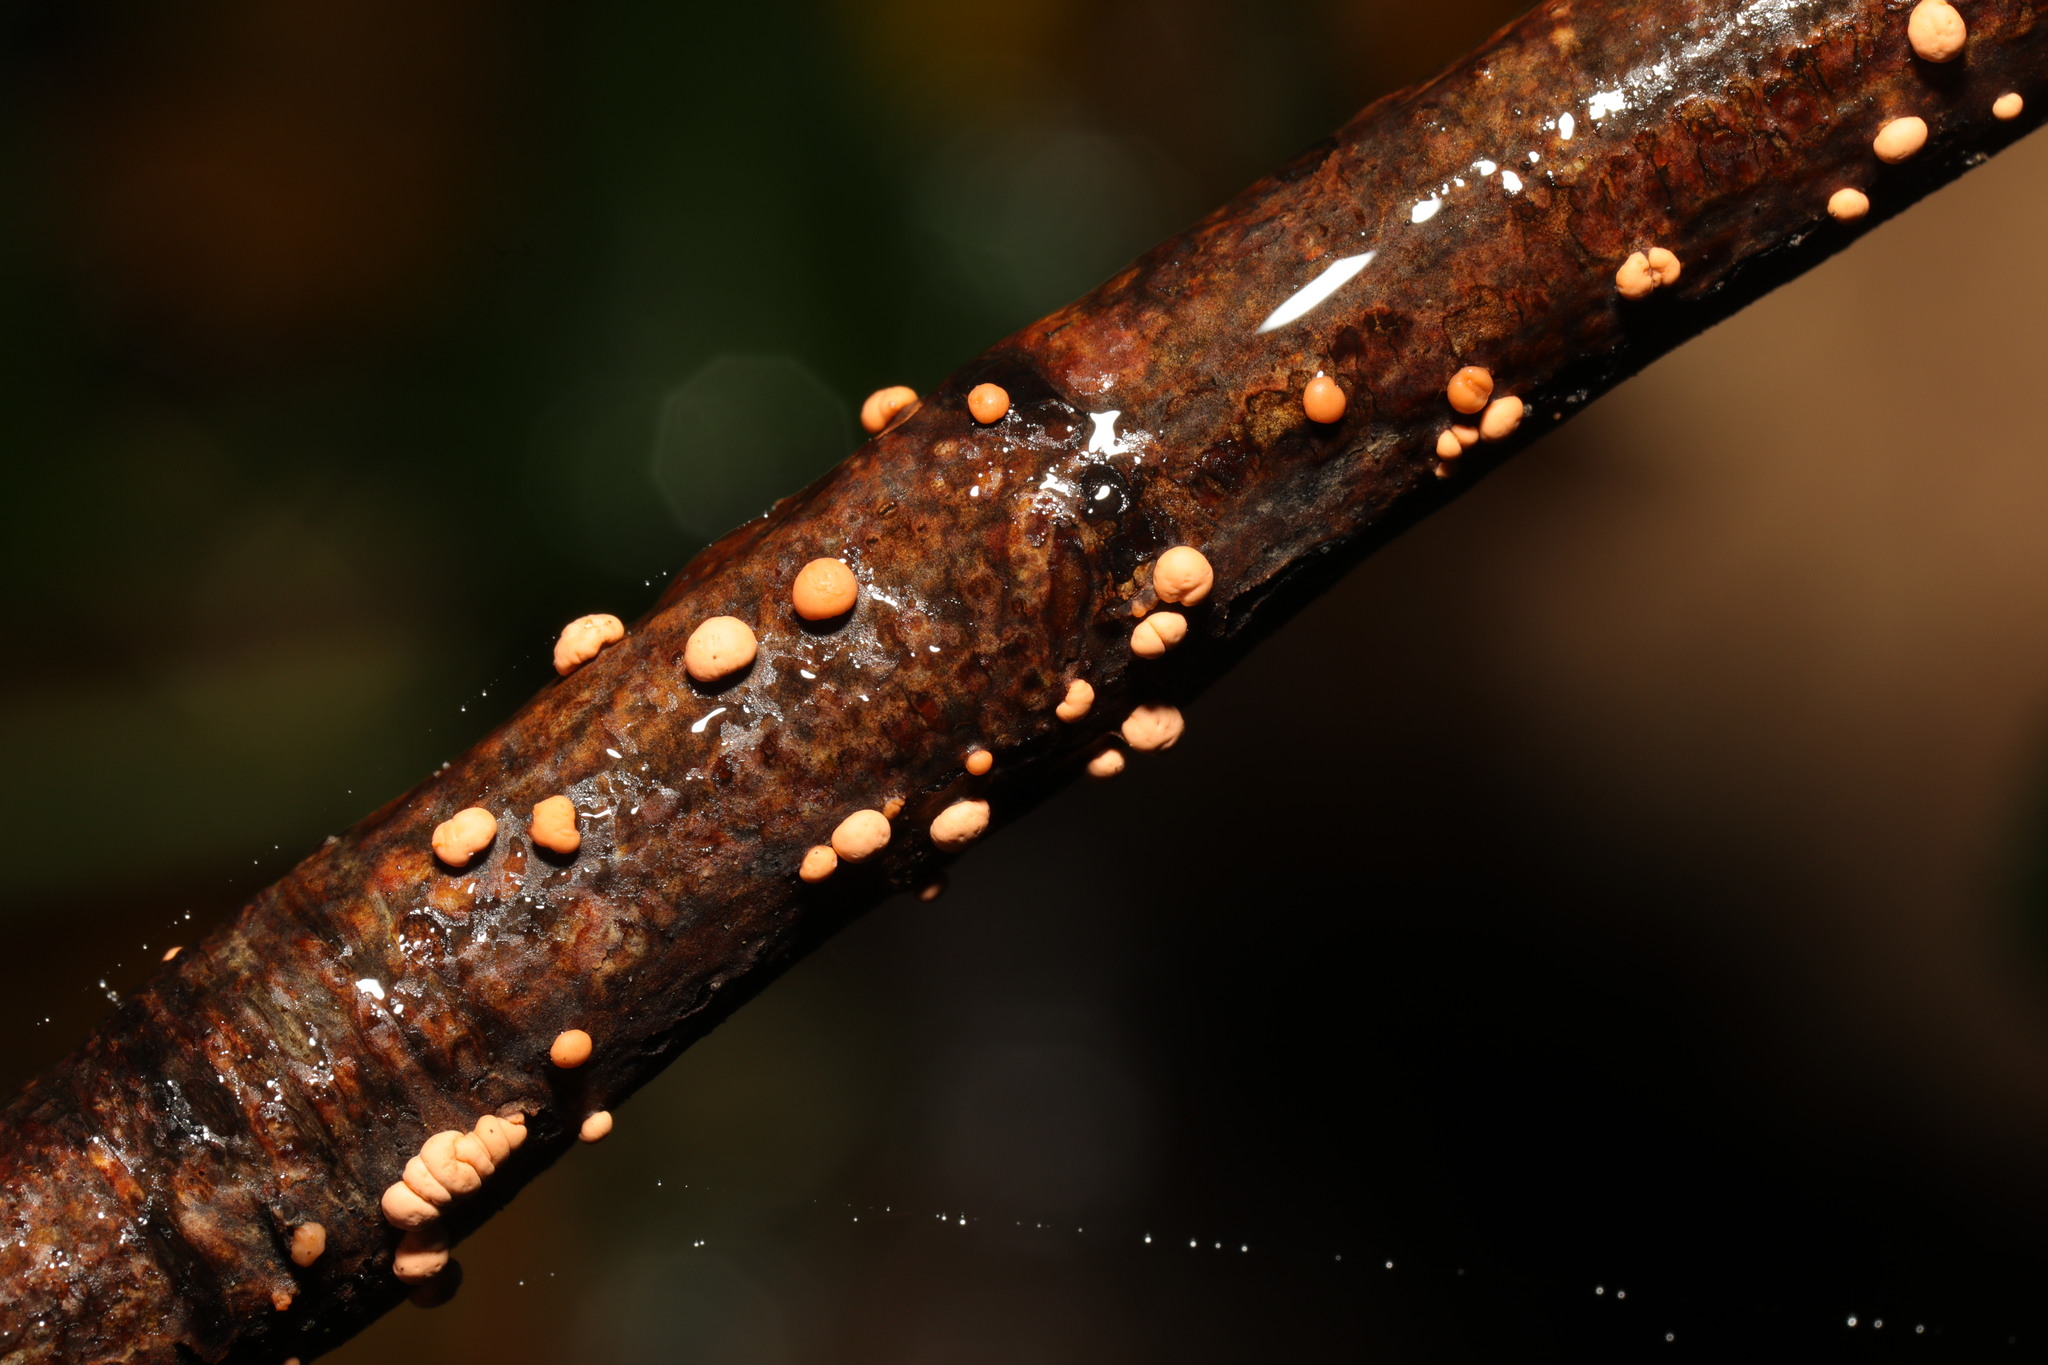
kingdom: Fungi
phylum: Ascomycota
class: Sordariomycetes
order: Hypocreales
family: Nectriaceae
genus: Nectria
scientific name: Nectria cinnabarina
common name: Coral spot
